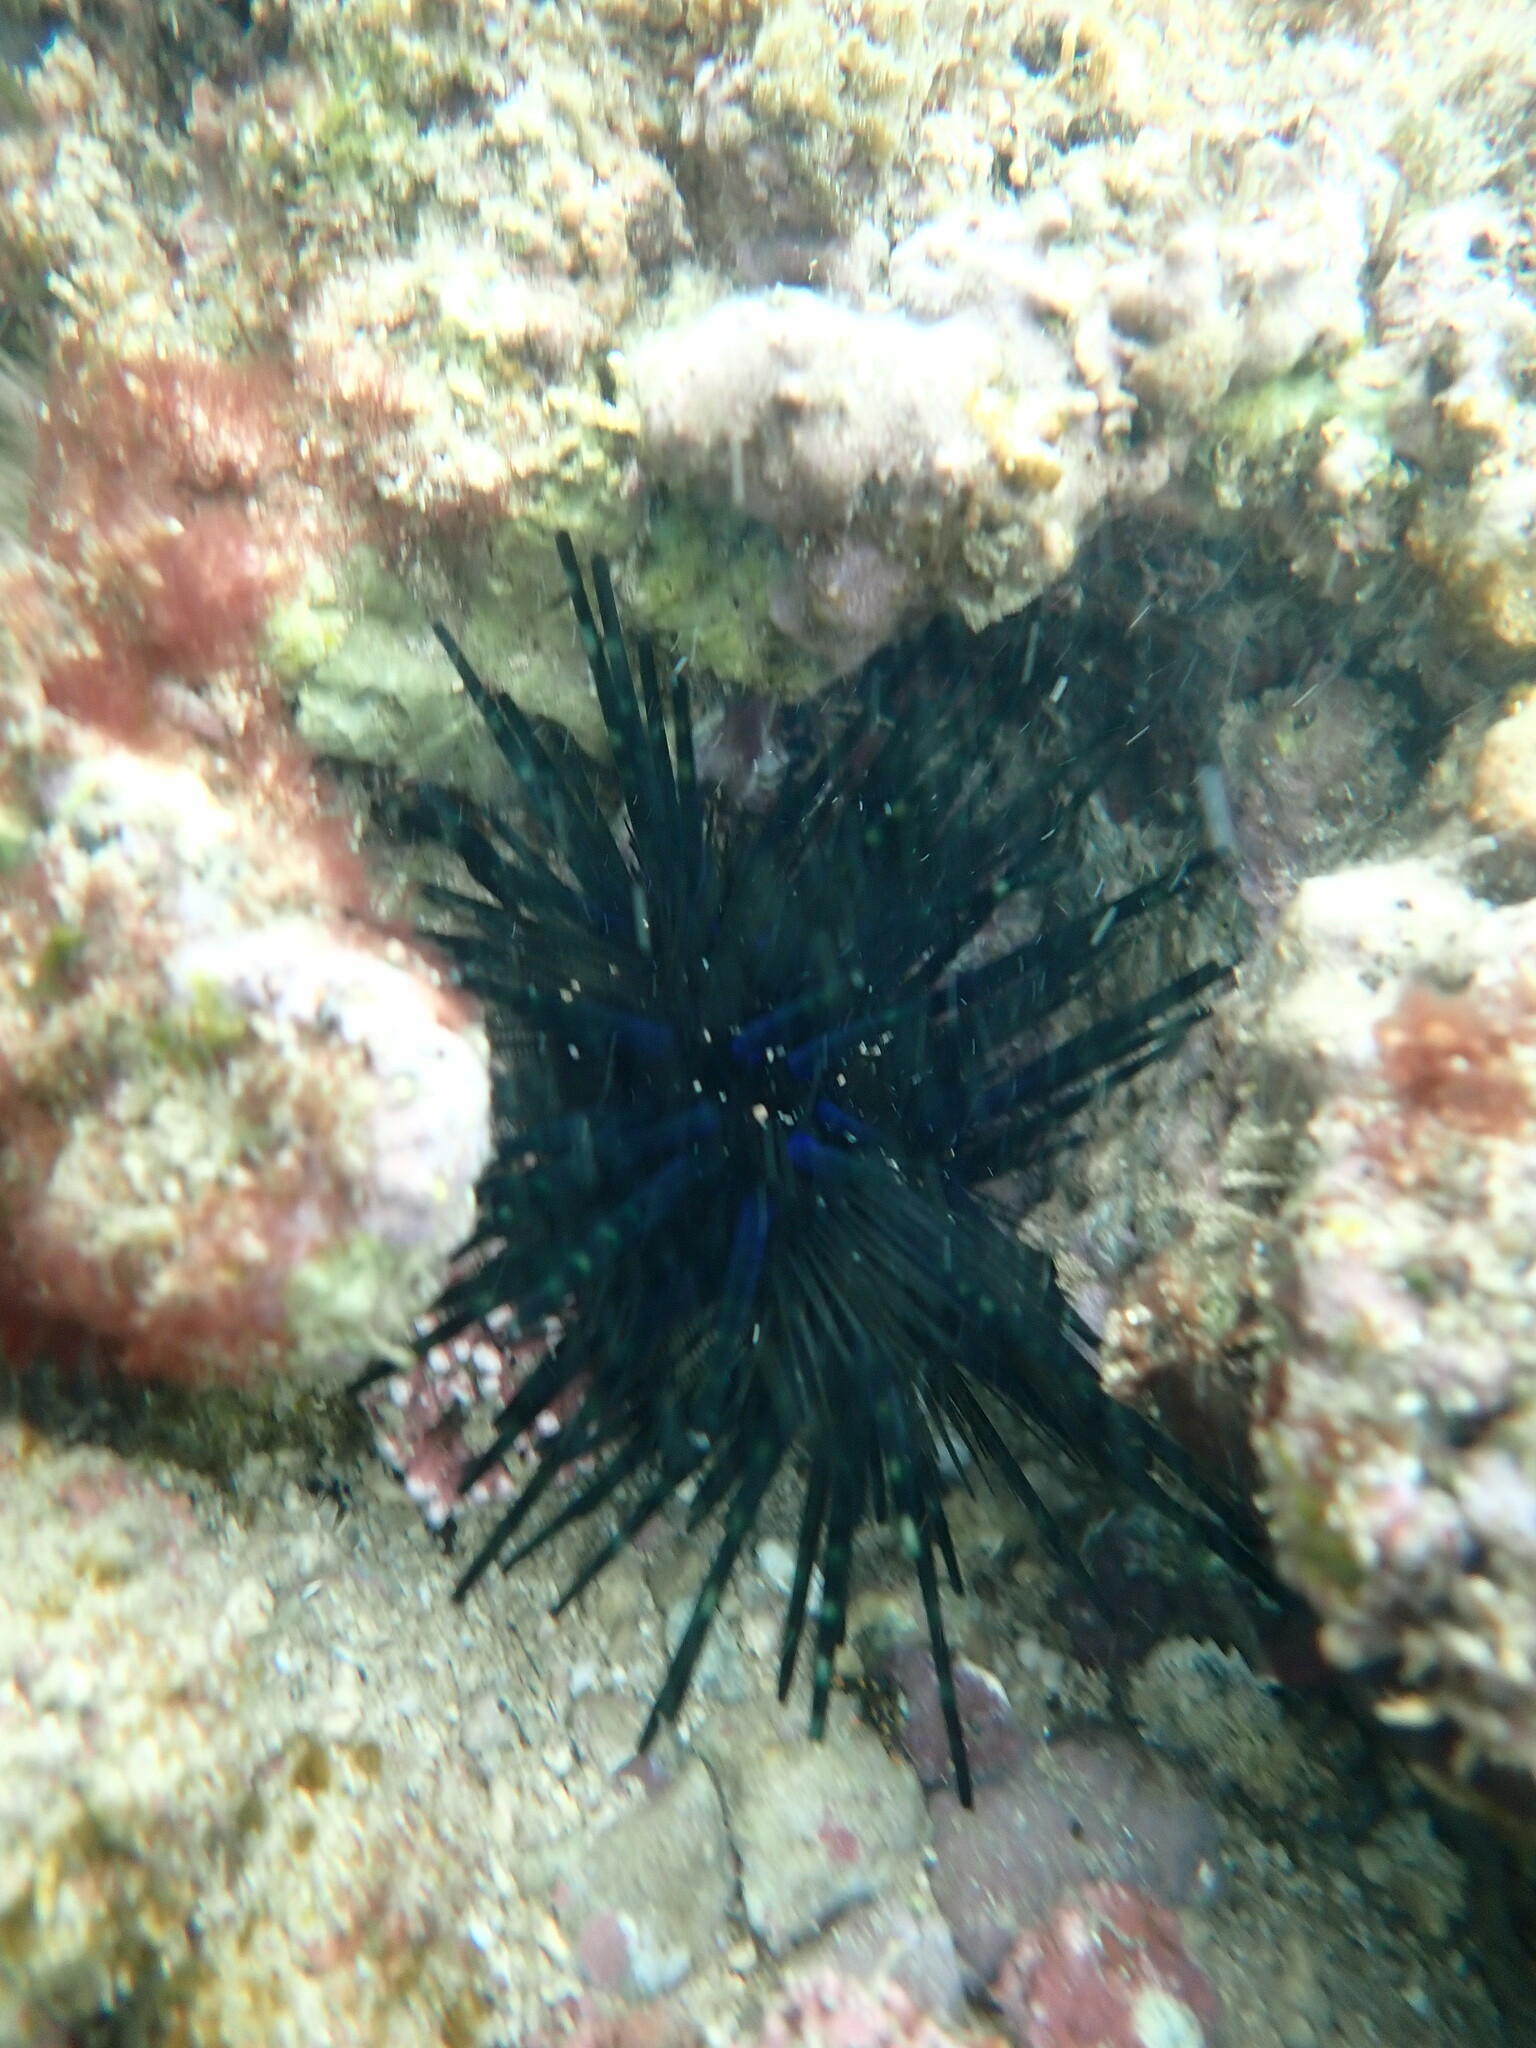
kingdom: Animalia
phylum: Echinodermata
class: Echinoidea
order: Diadematoida
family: Diadematidae
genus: Echinothrix
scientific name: Echinothrix diadema
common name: Schwarzer diademseeigel
